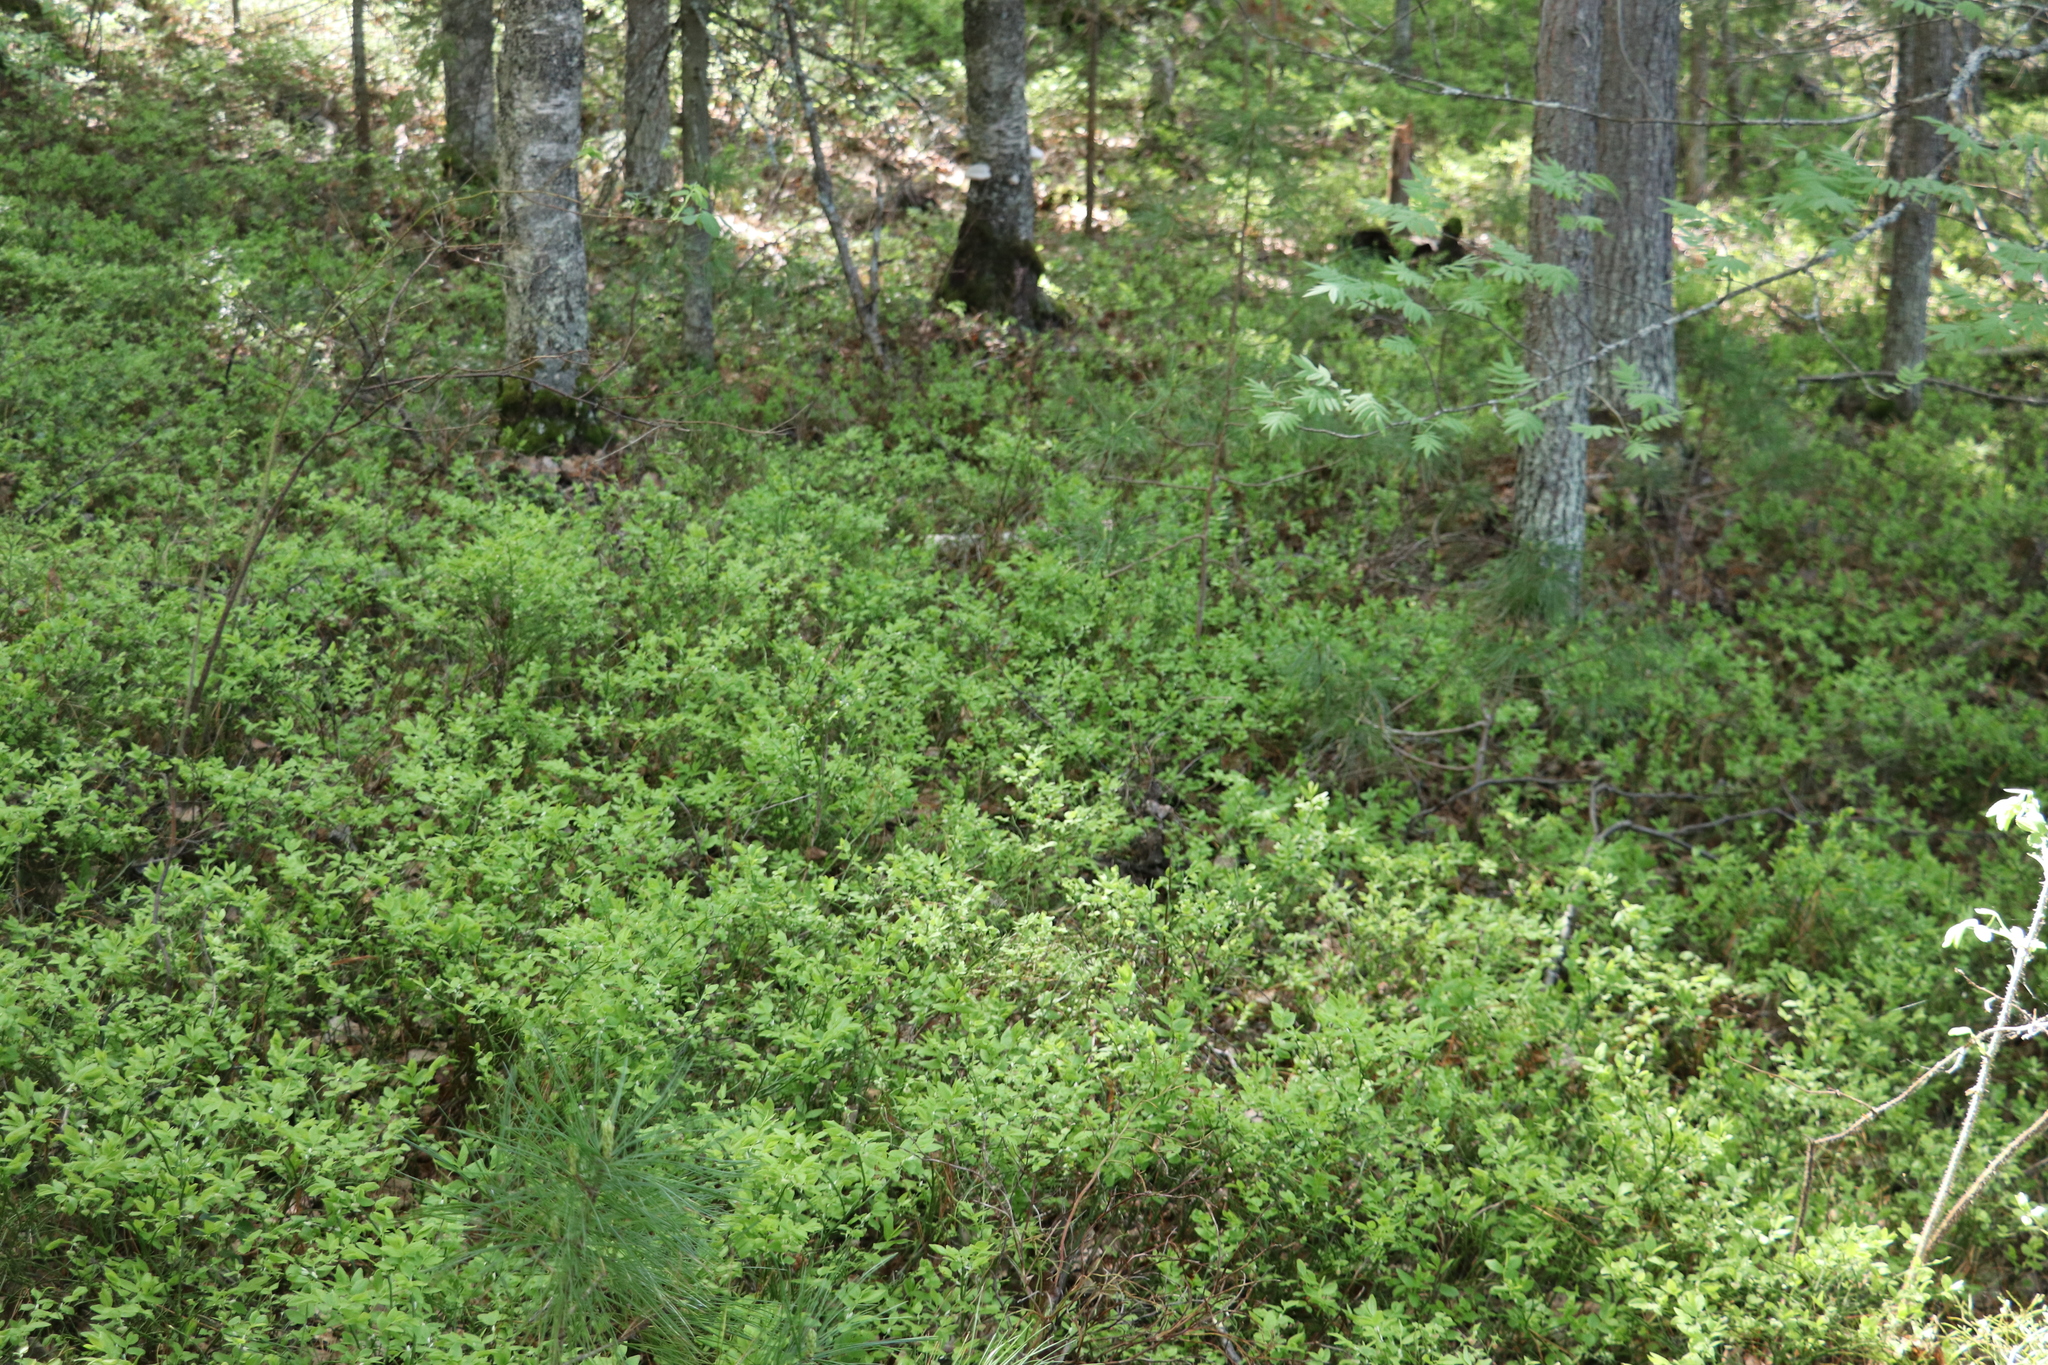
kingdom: Plantae
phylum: Tracheophyta
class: Magnoliopsida
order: Ericales
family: Ericaceae
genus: Vaccinium
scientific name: Vaccinium myrtillus
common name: Bilberry
